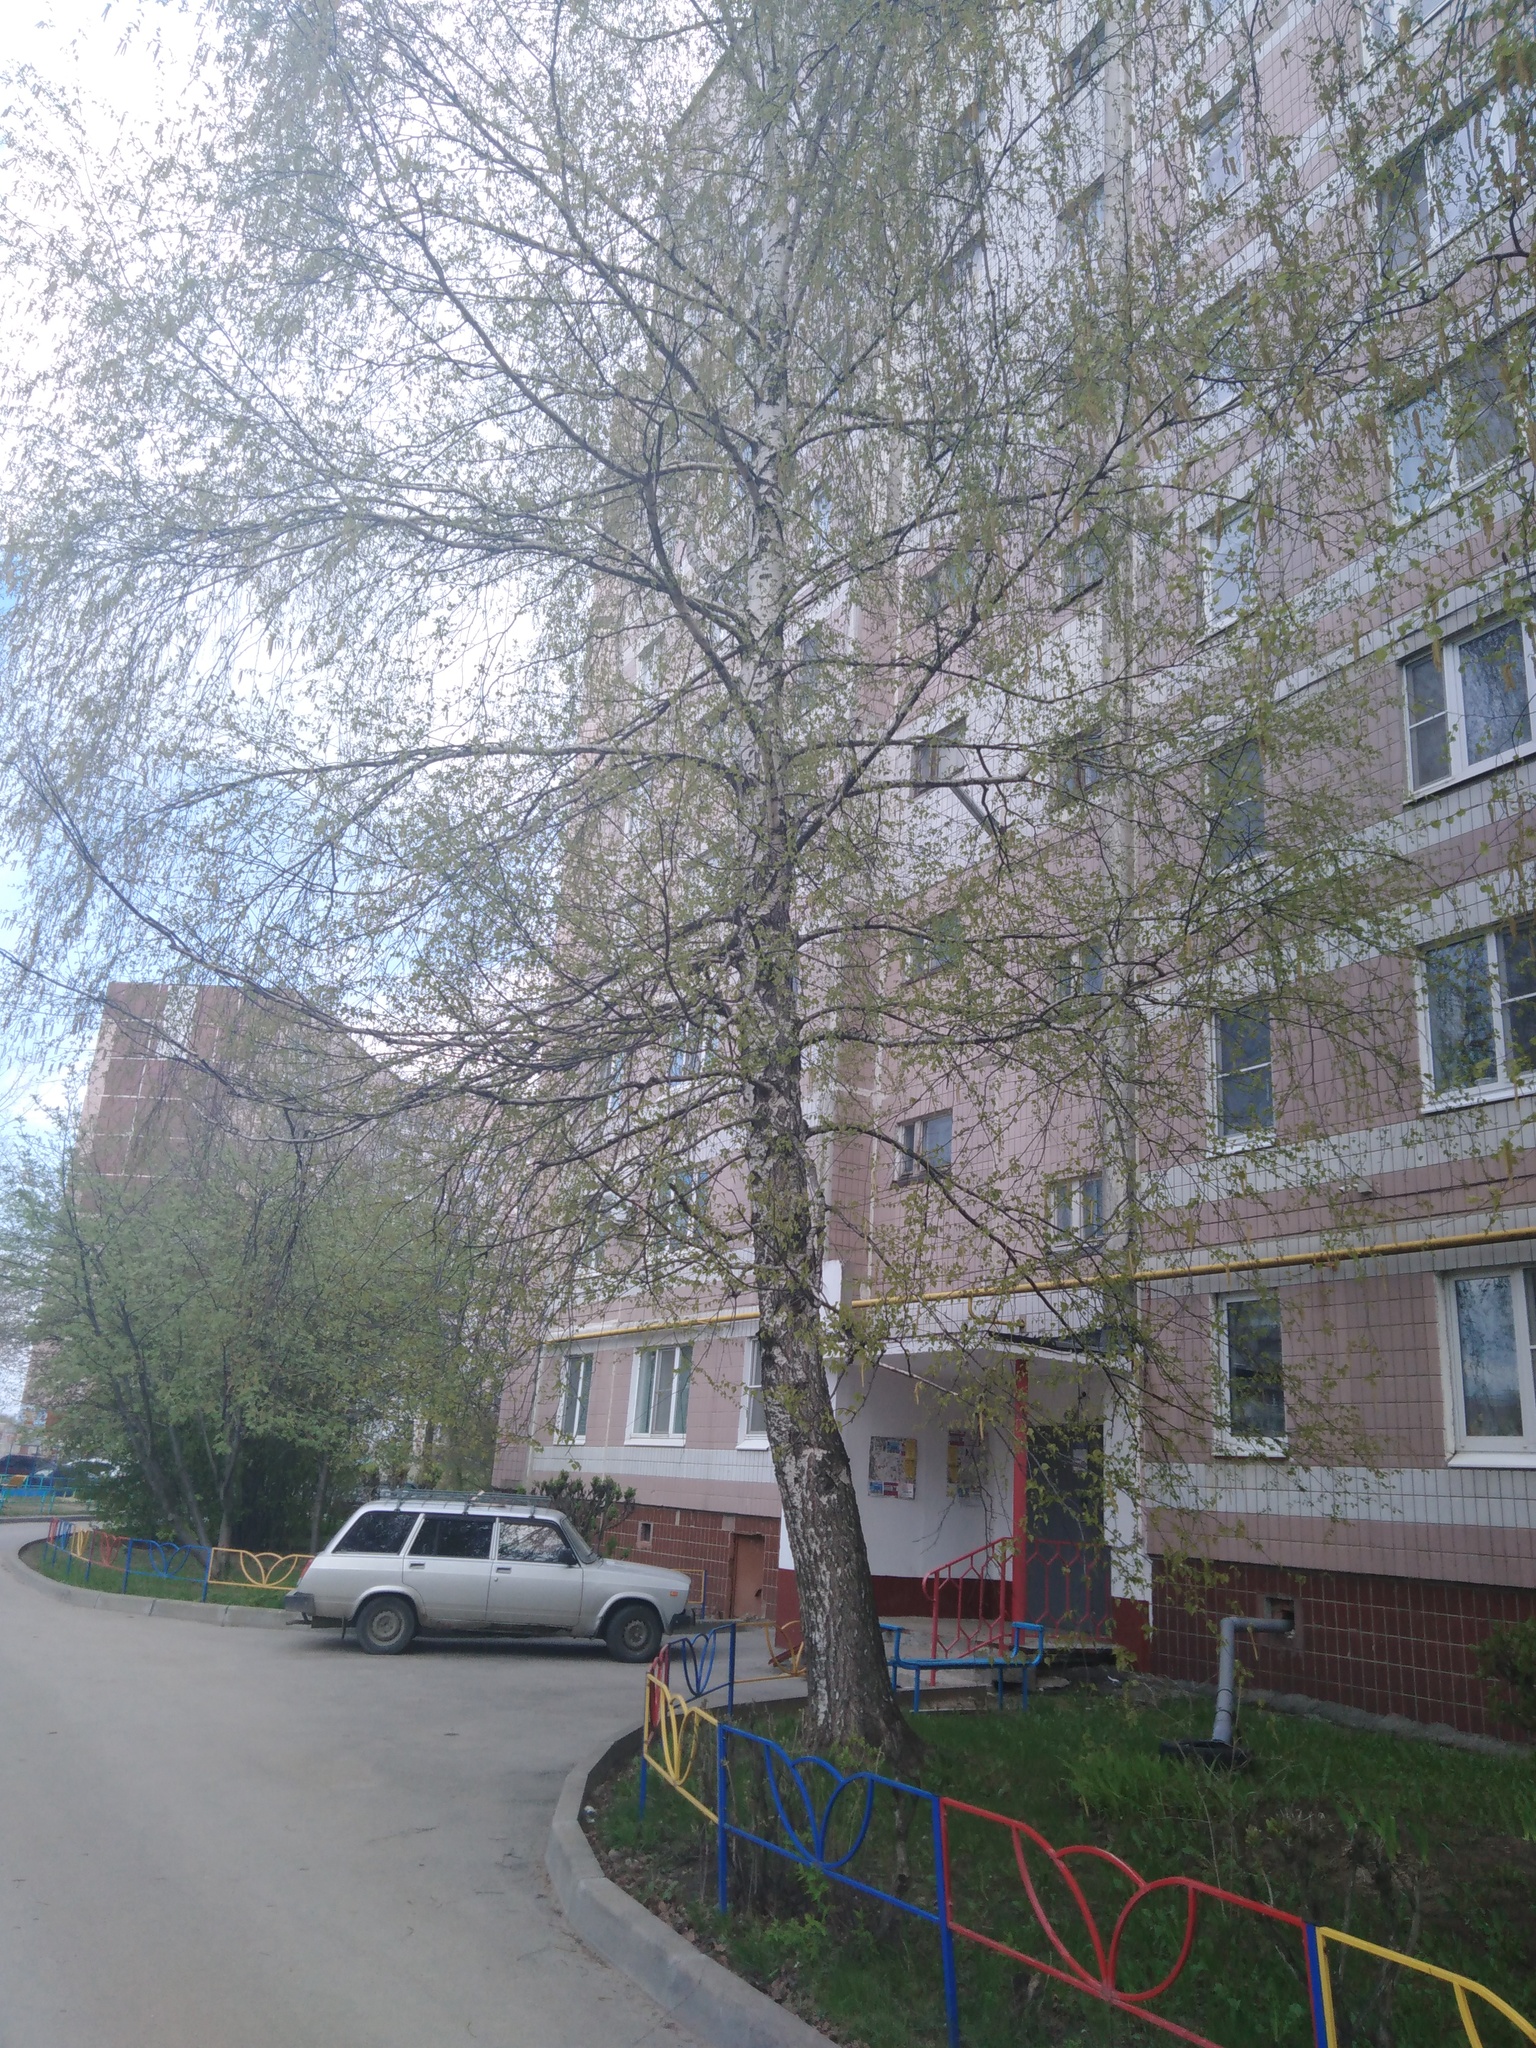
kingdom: Plantae
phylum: Tracheophyta
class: Magnoliopsida
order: Fagales
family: Betulaceae
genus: Betula
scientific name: Betula pendula
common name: Silver birch
